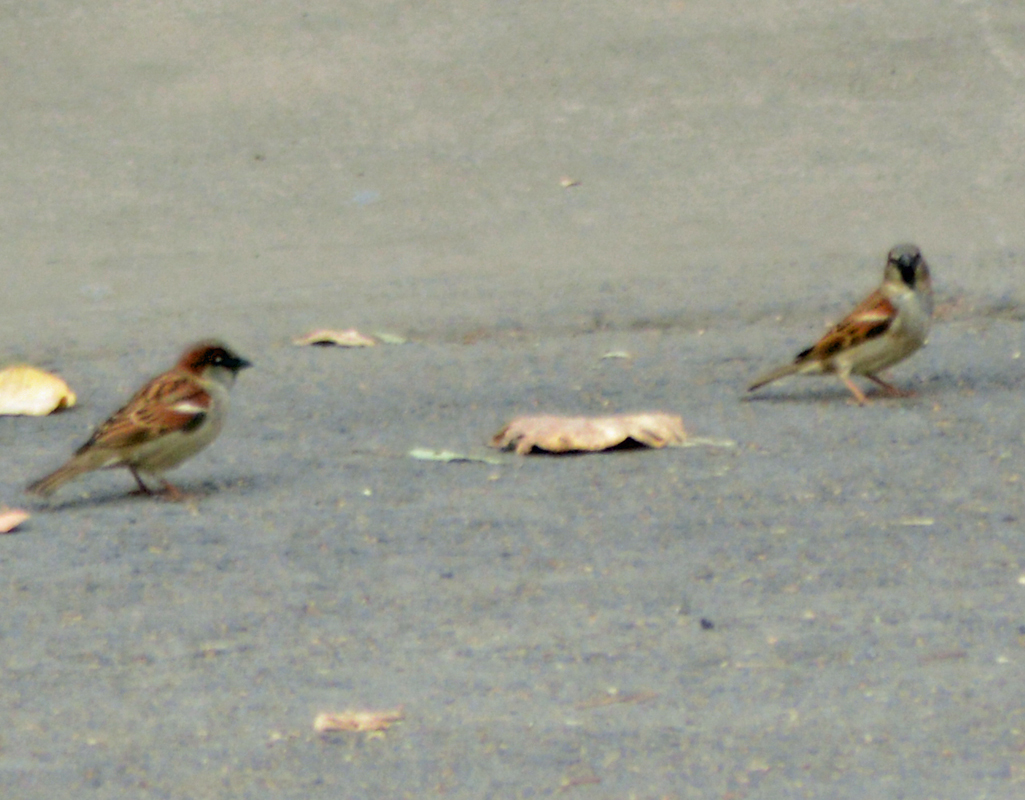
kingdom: Animalia
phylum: Chordata
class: Aves
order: Passeriformes
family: Passeridae
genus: Passer
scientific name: Passer domesticus
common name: House sparrow
